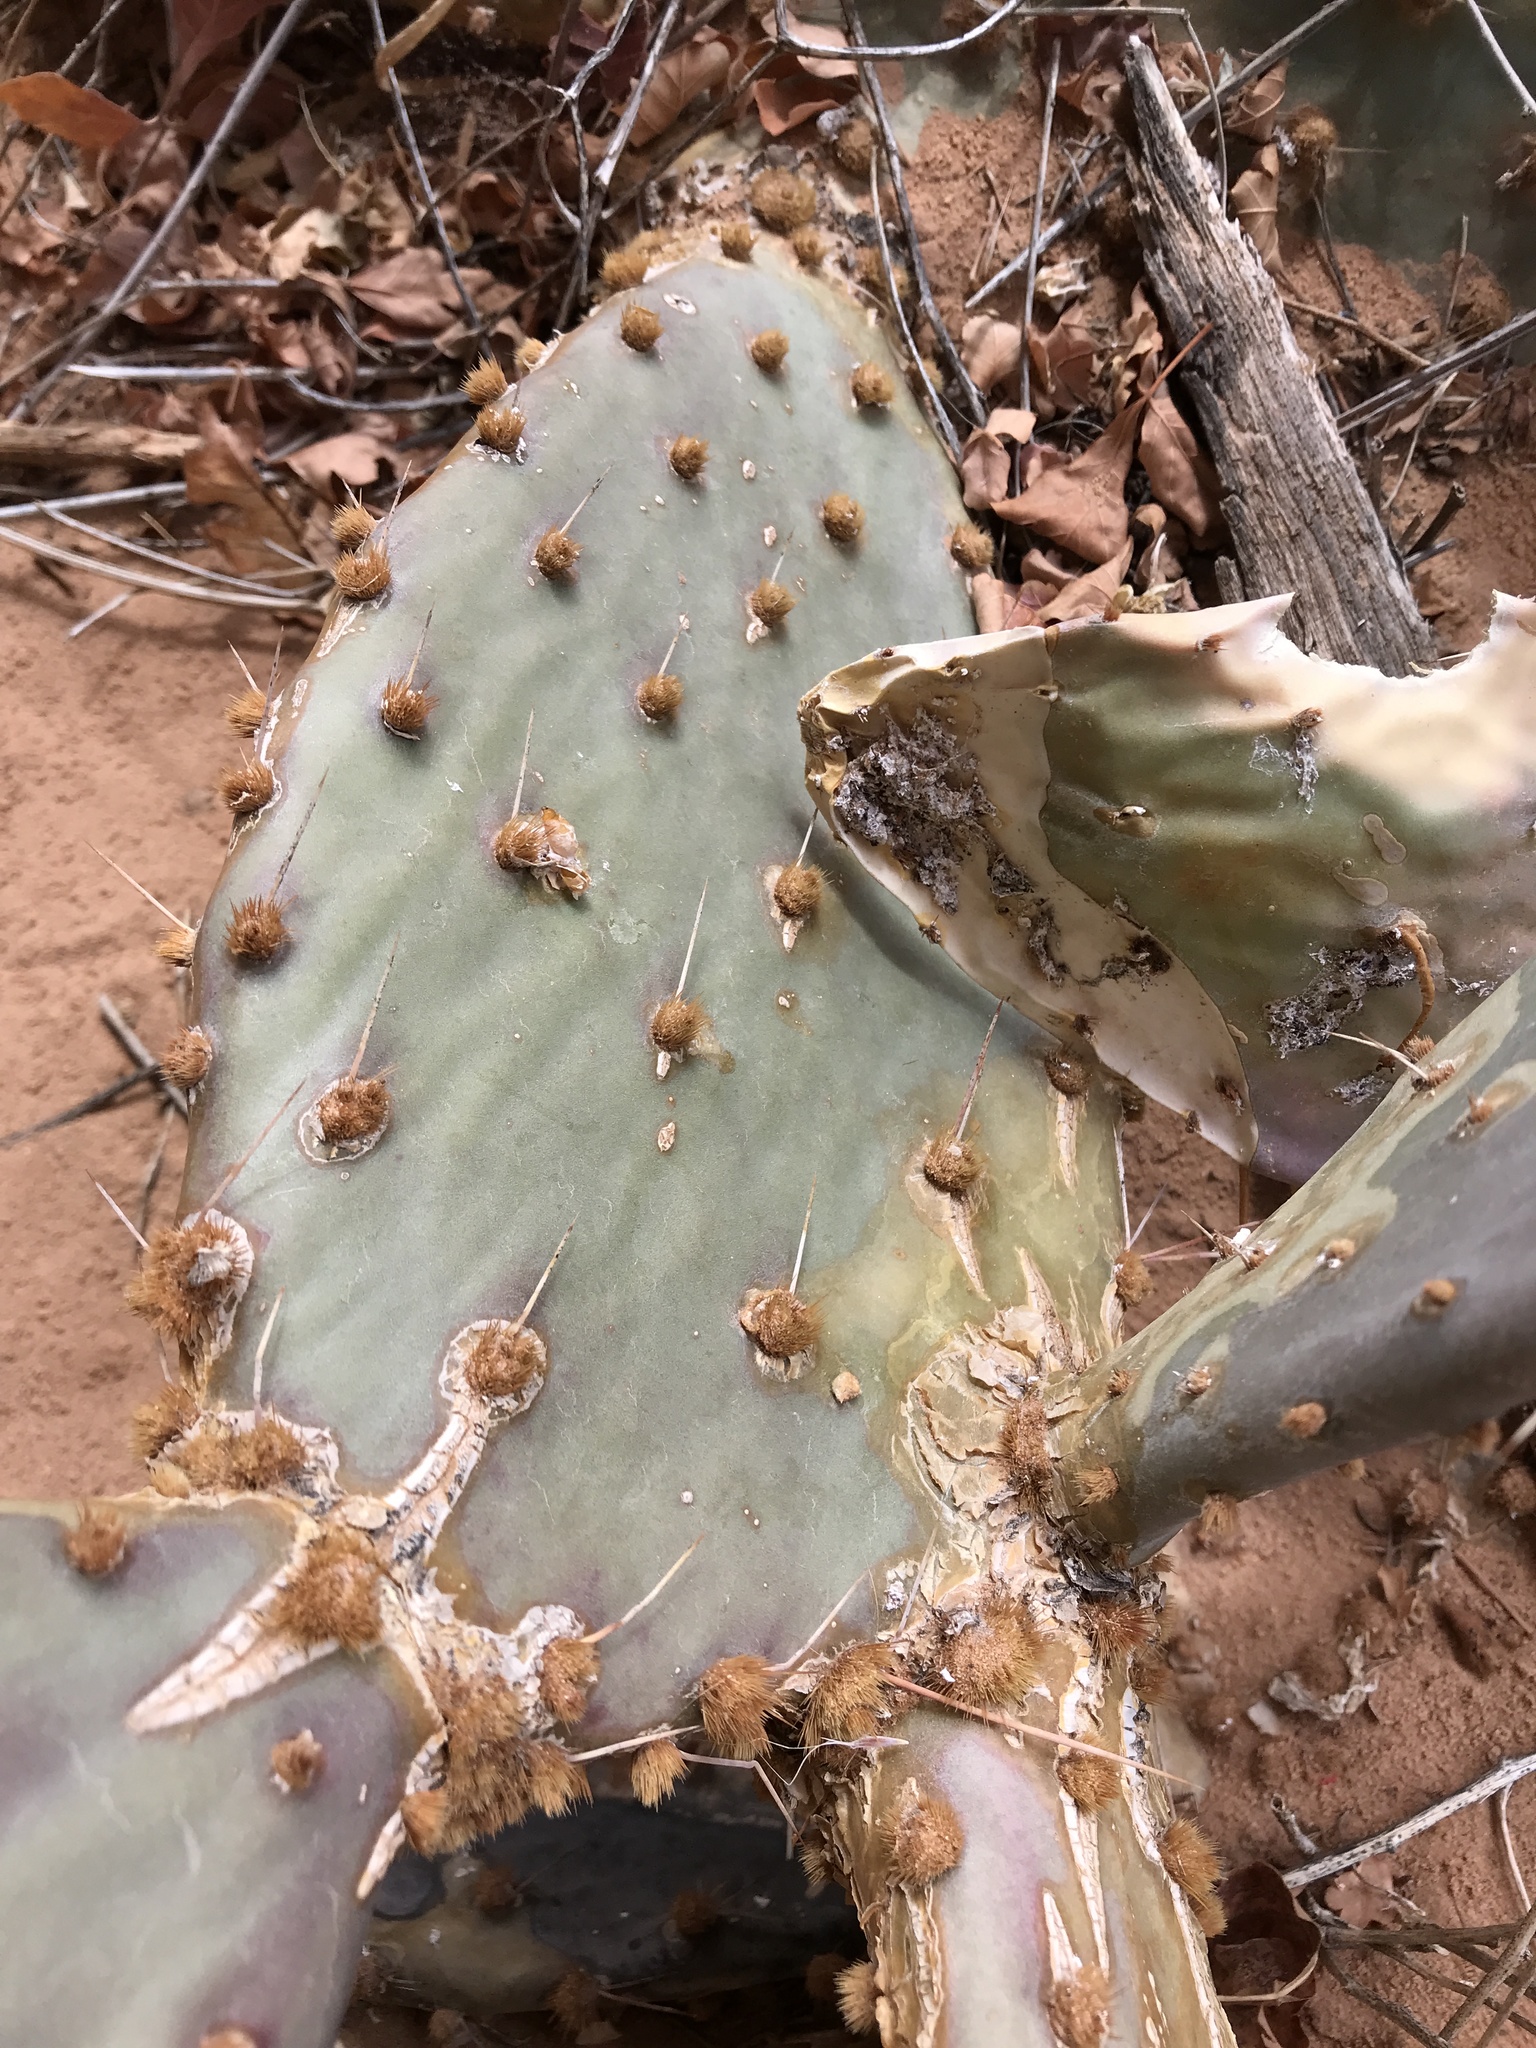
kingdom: Plantae
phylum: Tracheophyta
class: Magnoliopsida
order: Caryophyllales
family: Cactaceae
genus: Opuntia
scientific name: Opuntia phaeacantha
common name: New mexico prickly-pear
